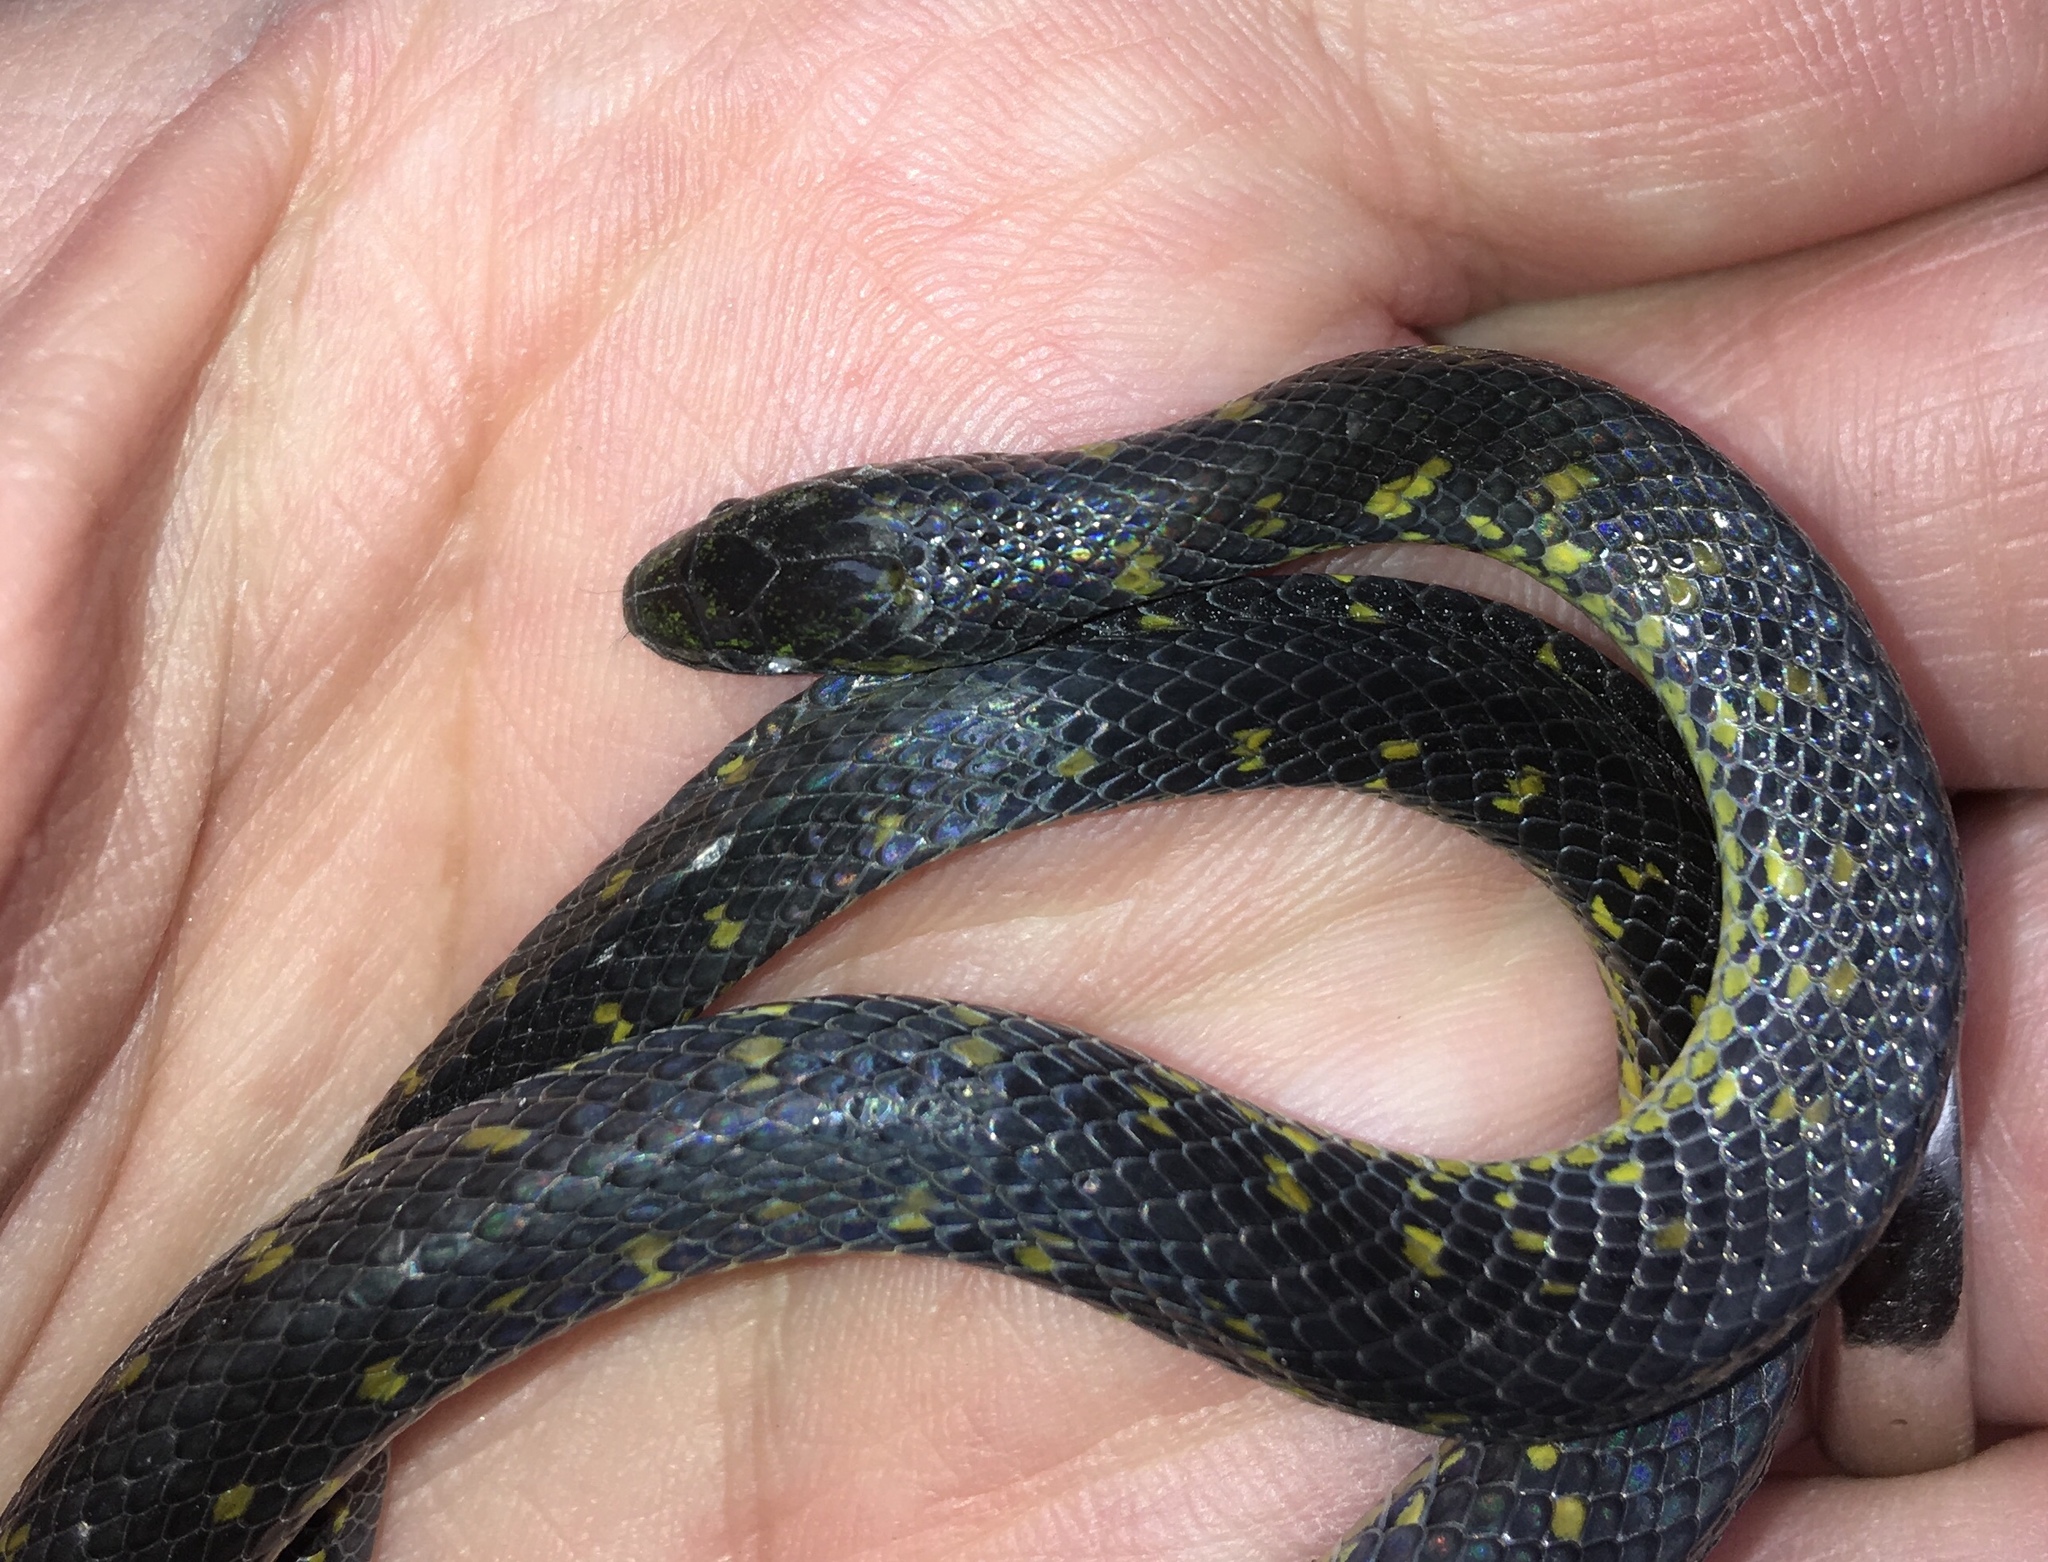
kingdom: Animalia
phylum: Chordata
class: Squamata
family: Colubridae
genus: Atractus
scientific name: Atractus crassicaudatus
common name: Thickhead ground snake
